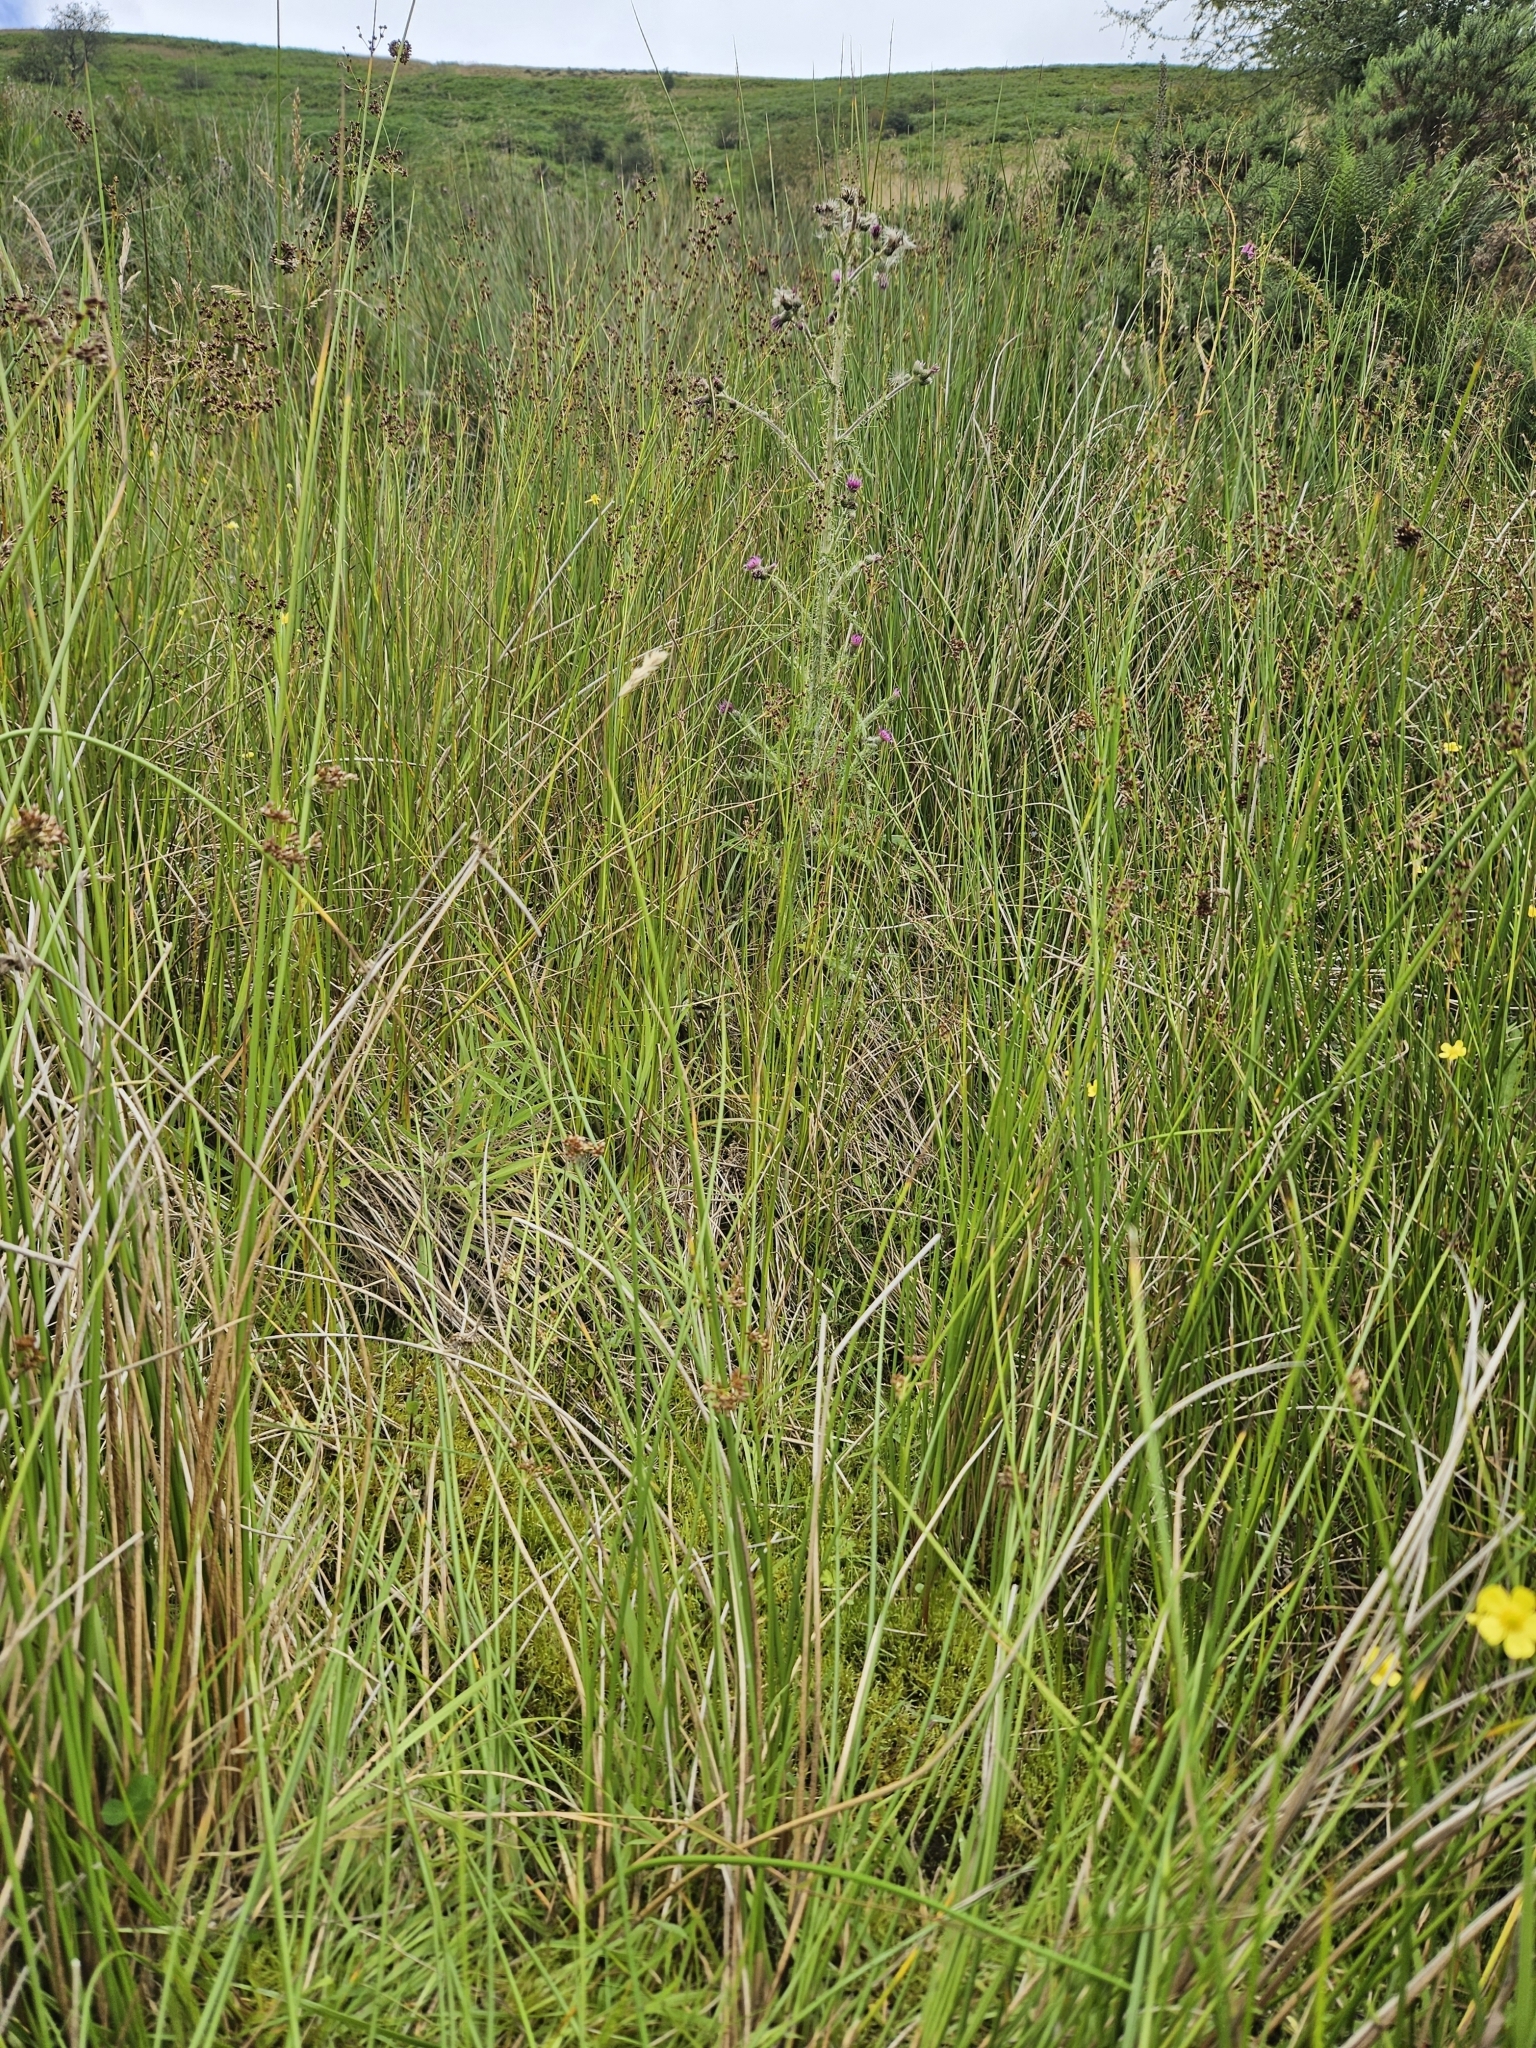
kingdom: Plantae
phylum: Bryophyta
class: Bryopsida
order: Hypnales
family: Pylaisiaceae
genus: Calliergonella
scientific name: Calliergonella cuspidata
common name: Common large wetland moss
